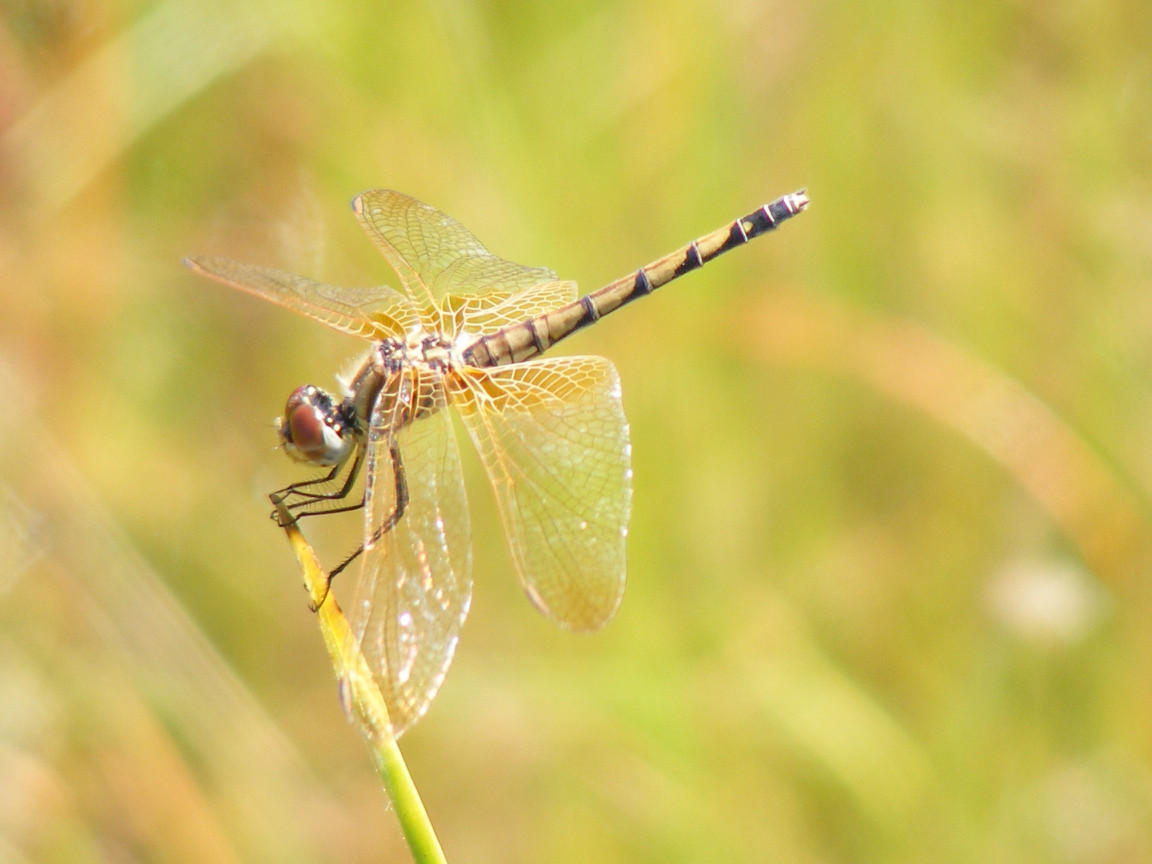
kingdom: Animalia
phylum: Arthropoda
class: Insecta
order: Odonata
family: Libellulidae
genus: Trithemis
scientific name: Trithemis arteriosa
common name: Red-veined dropwing
